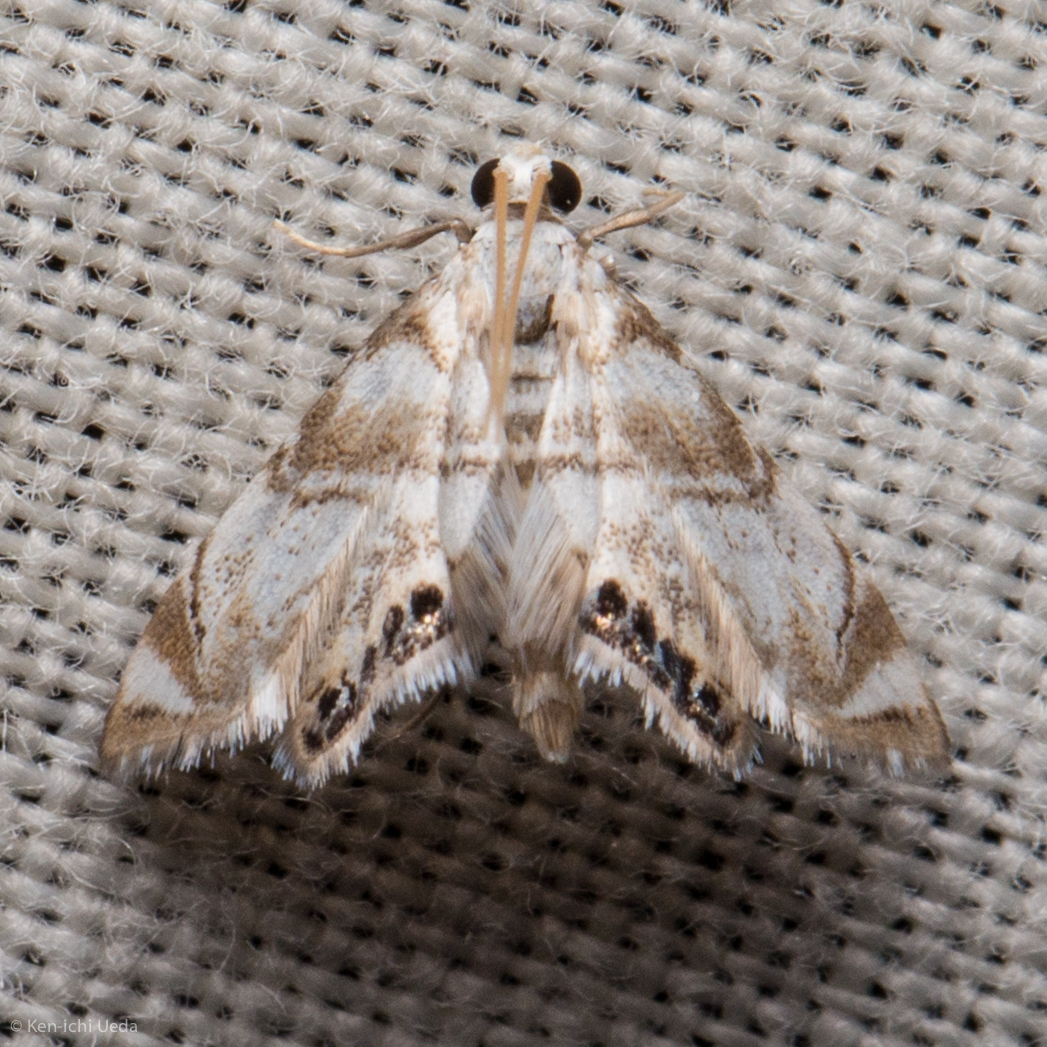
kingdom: Animalia
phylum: Arthropoda
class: Insecta
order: Lepidoptera
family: Crambidae
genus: Eoparargyractis
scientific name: Eoparargyractis plevie
